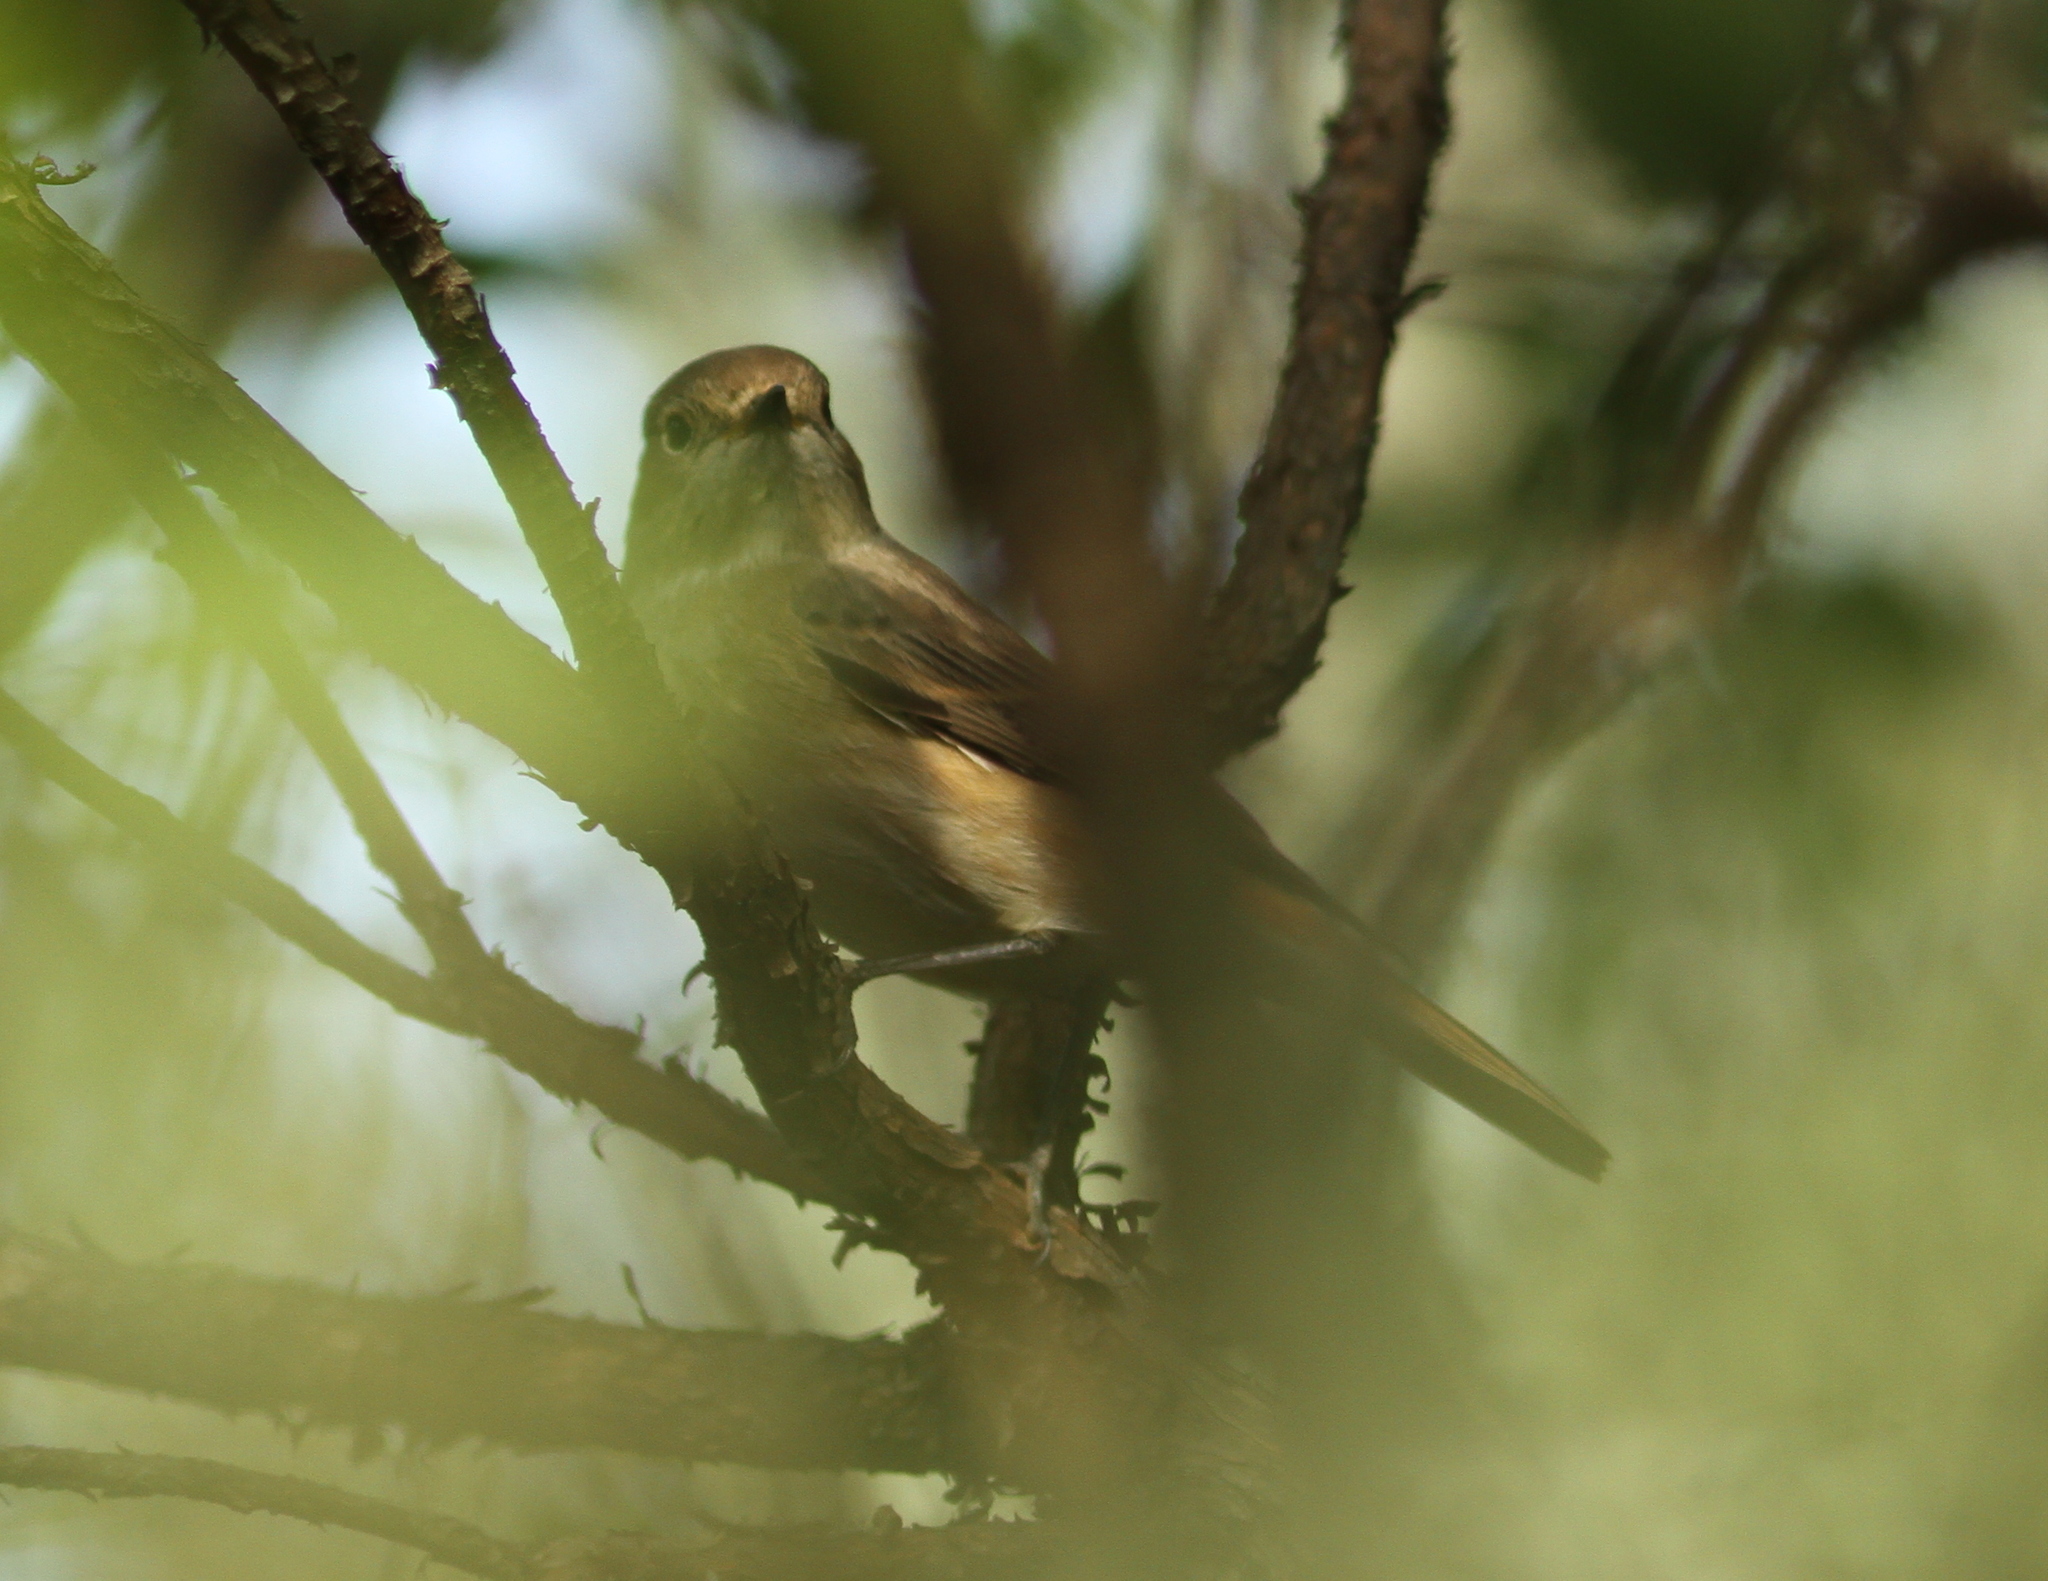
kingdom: Animalia
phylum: Chordata
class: Aves
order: Passeriformes
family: Muscicapidae
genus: Phoenicurus
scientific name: Phoenicurus phoenicurus
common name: Common redstart
